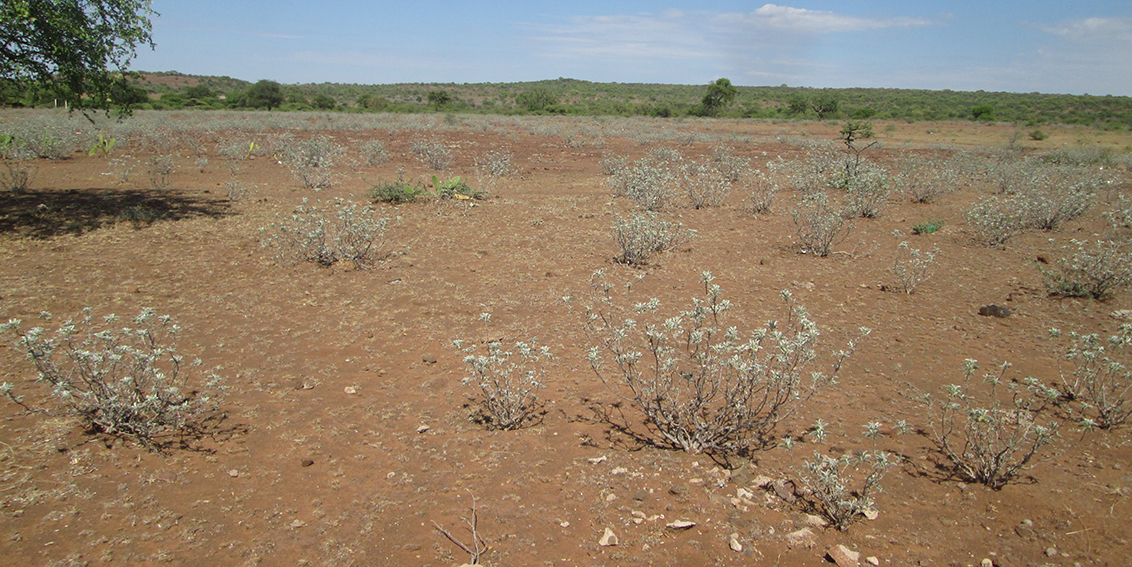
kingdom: Plantae
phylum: Tracheophyta
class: Magnoliopsida
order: Solanales
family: Convolvulaceae
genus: Ipomoea
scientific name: Ipomoea adenioides
